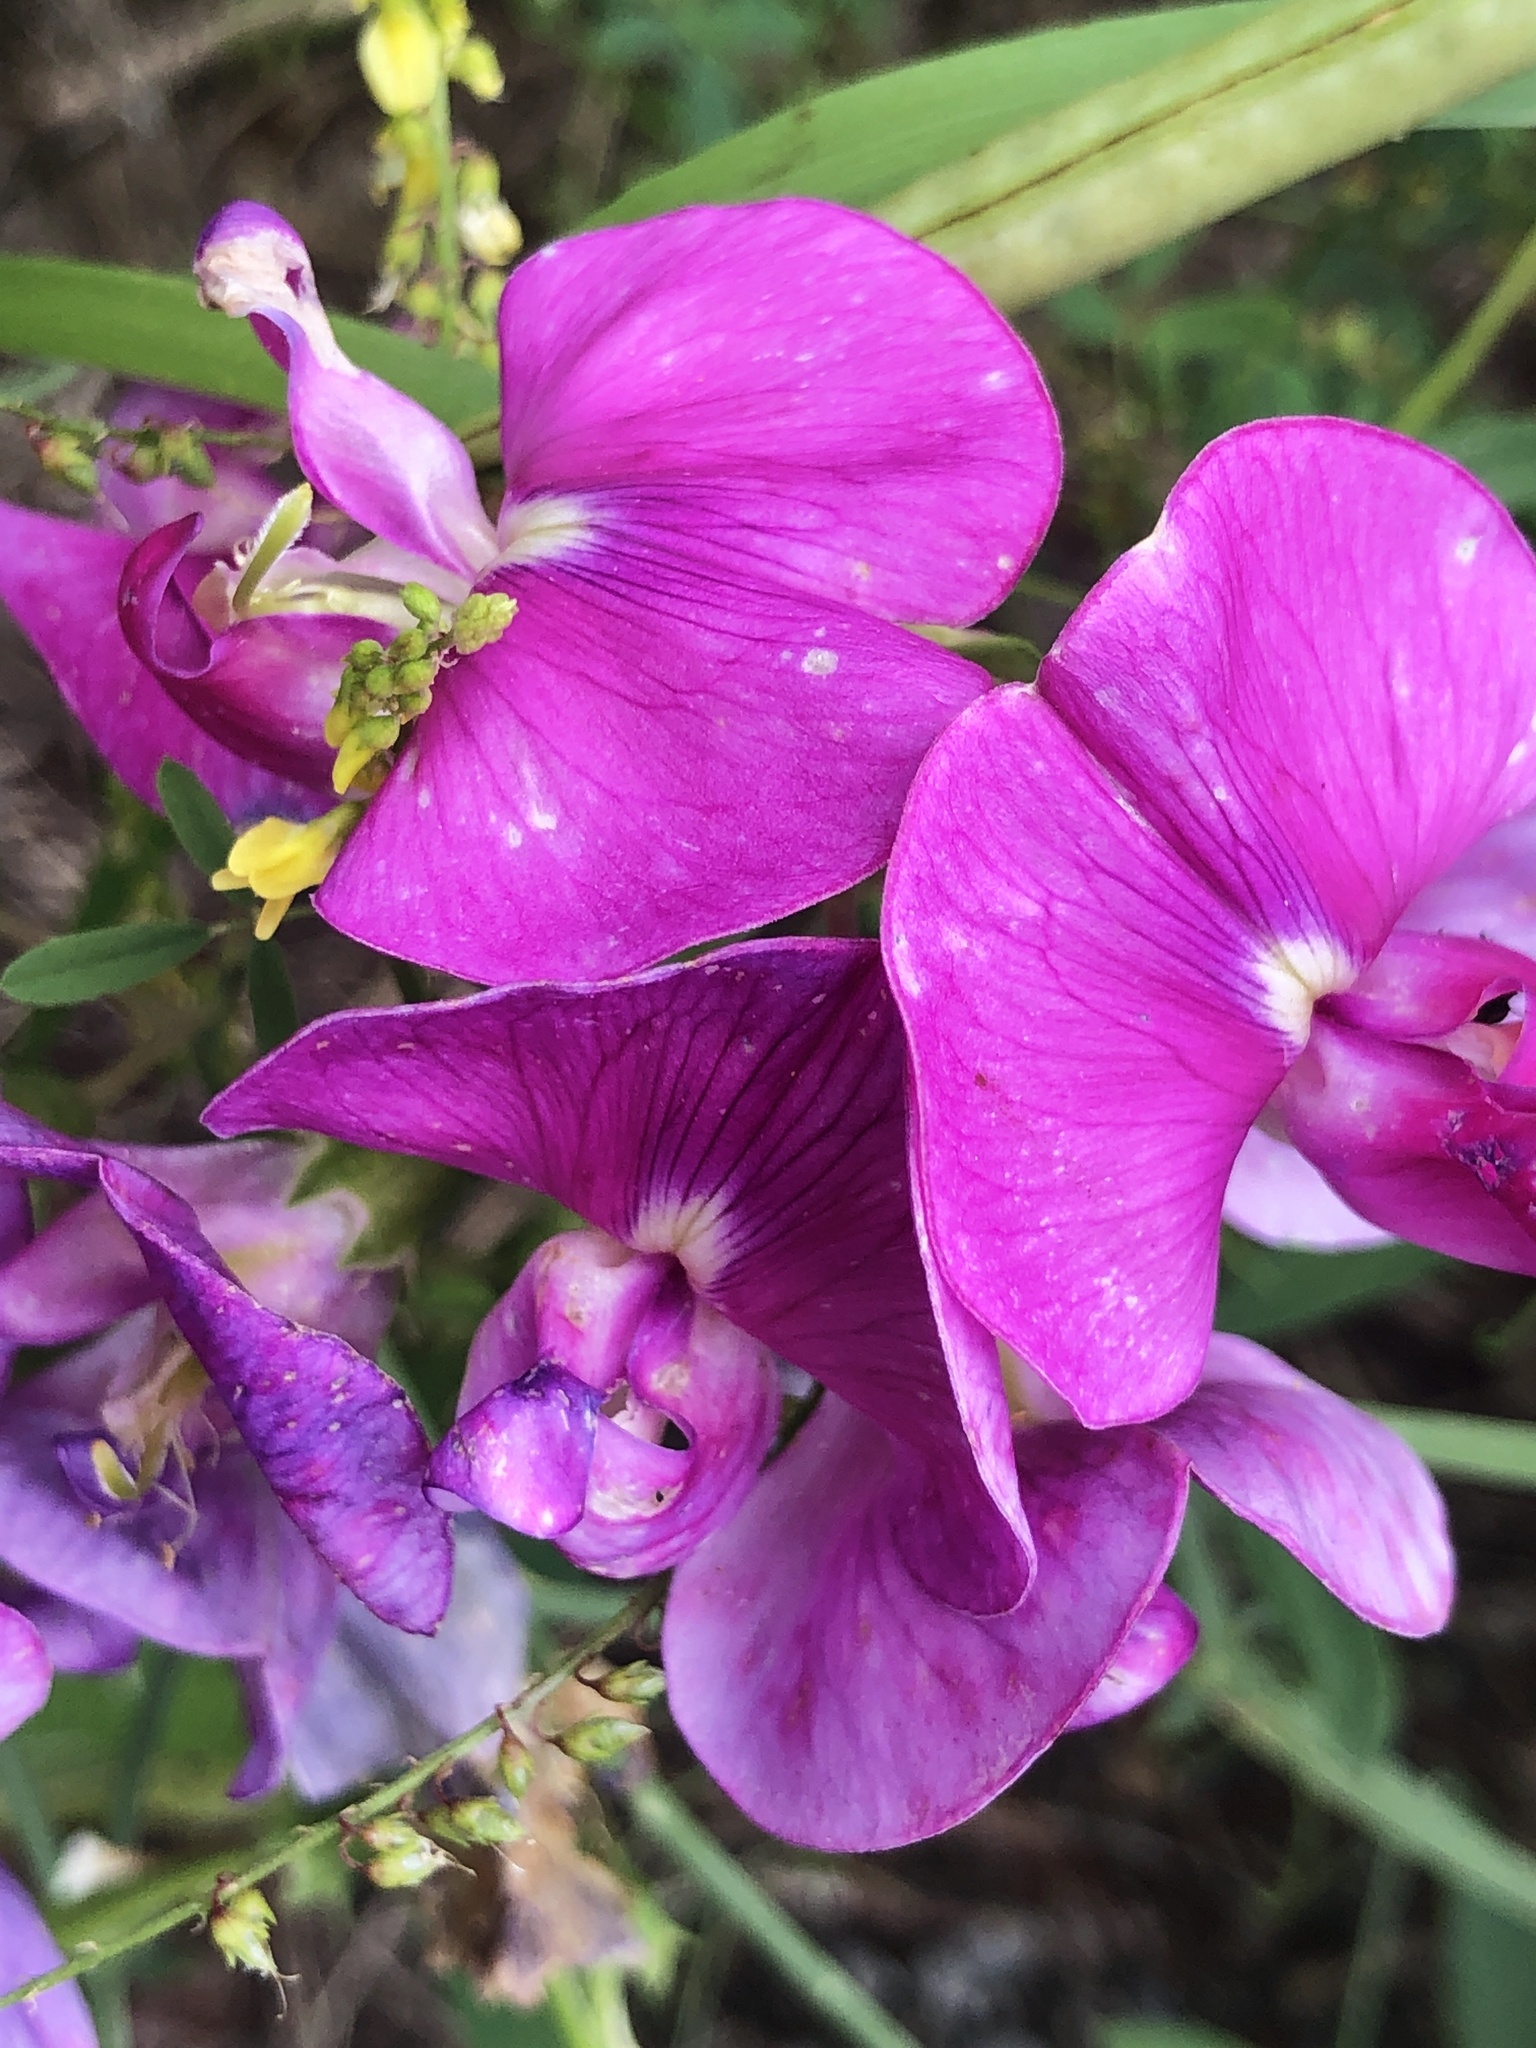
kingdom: Plantae
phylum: Tracheophyta
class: Magnoliopsida
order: Fabales
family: Fabaceae
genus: Lathyrus
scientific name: Lathyrus latifolius
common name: Perennial pea
